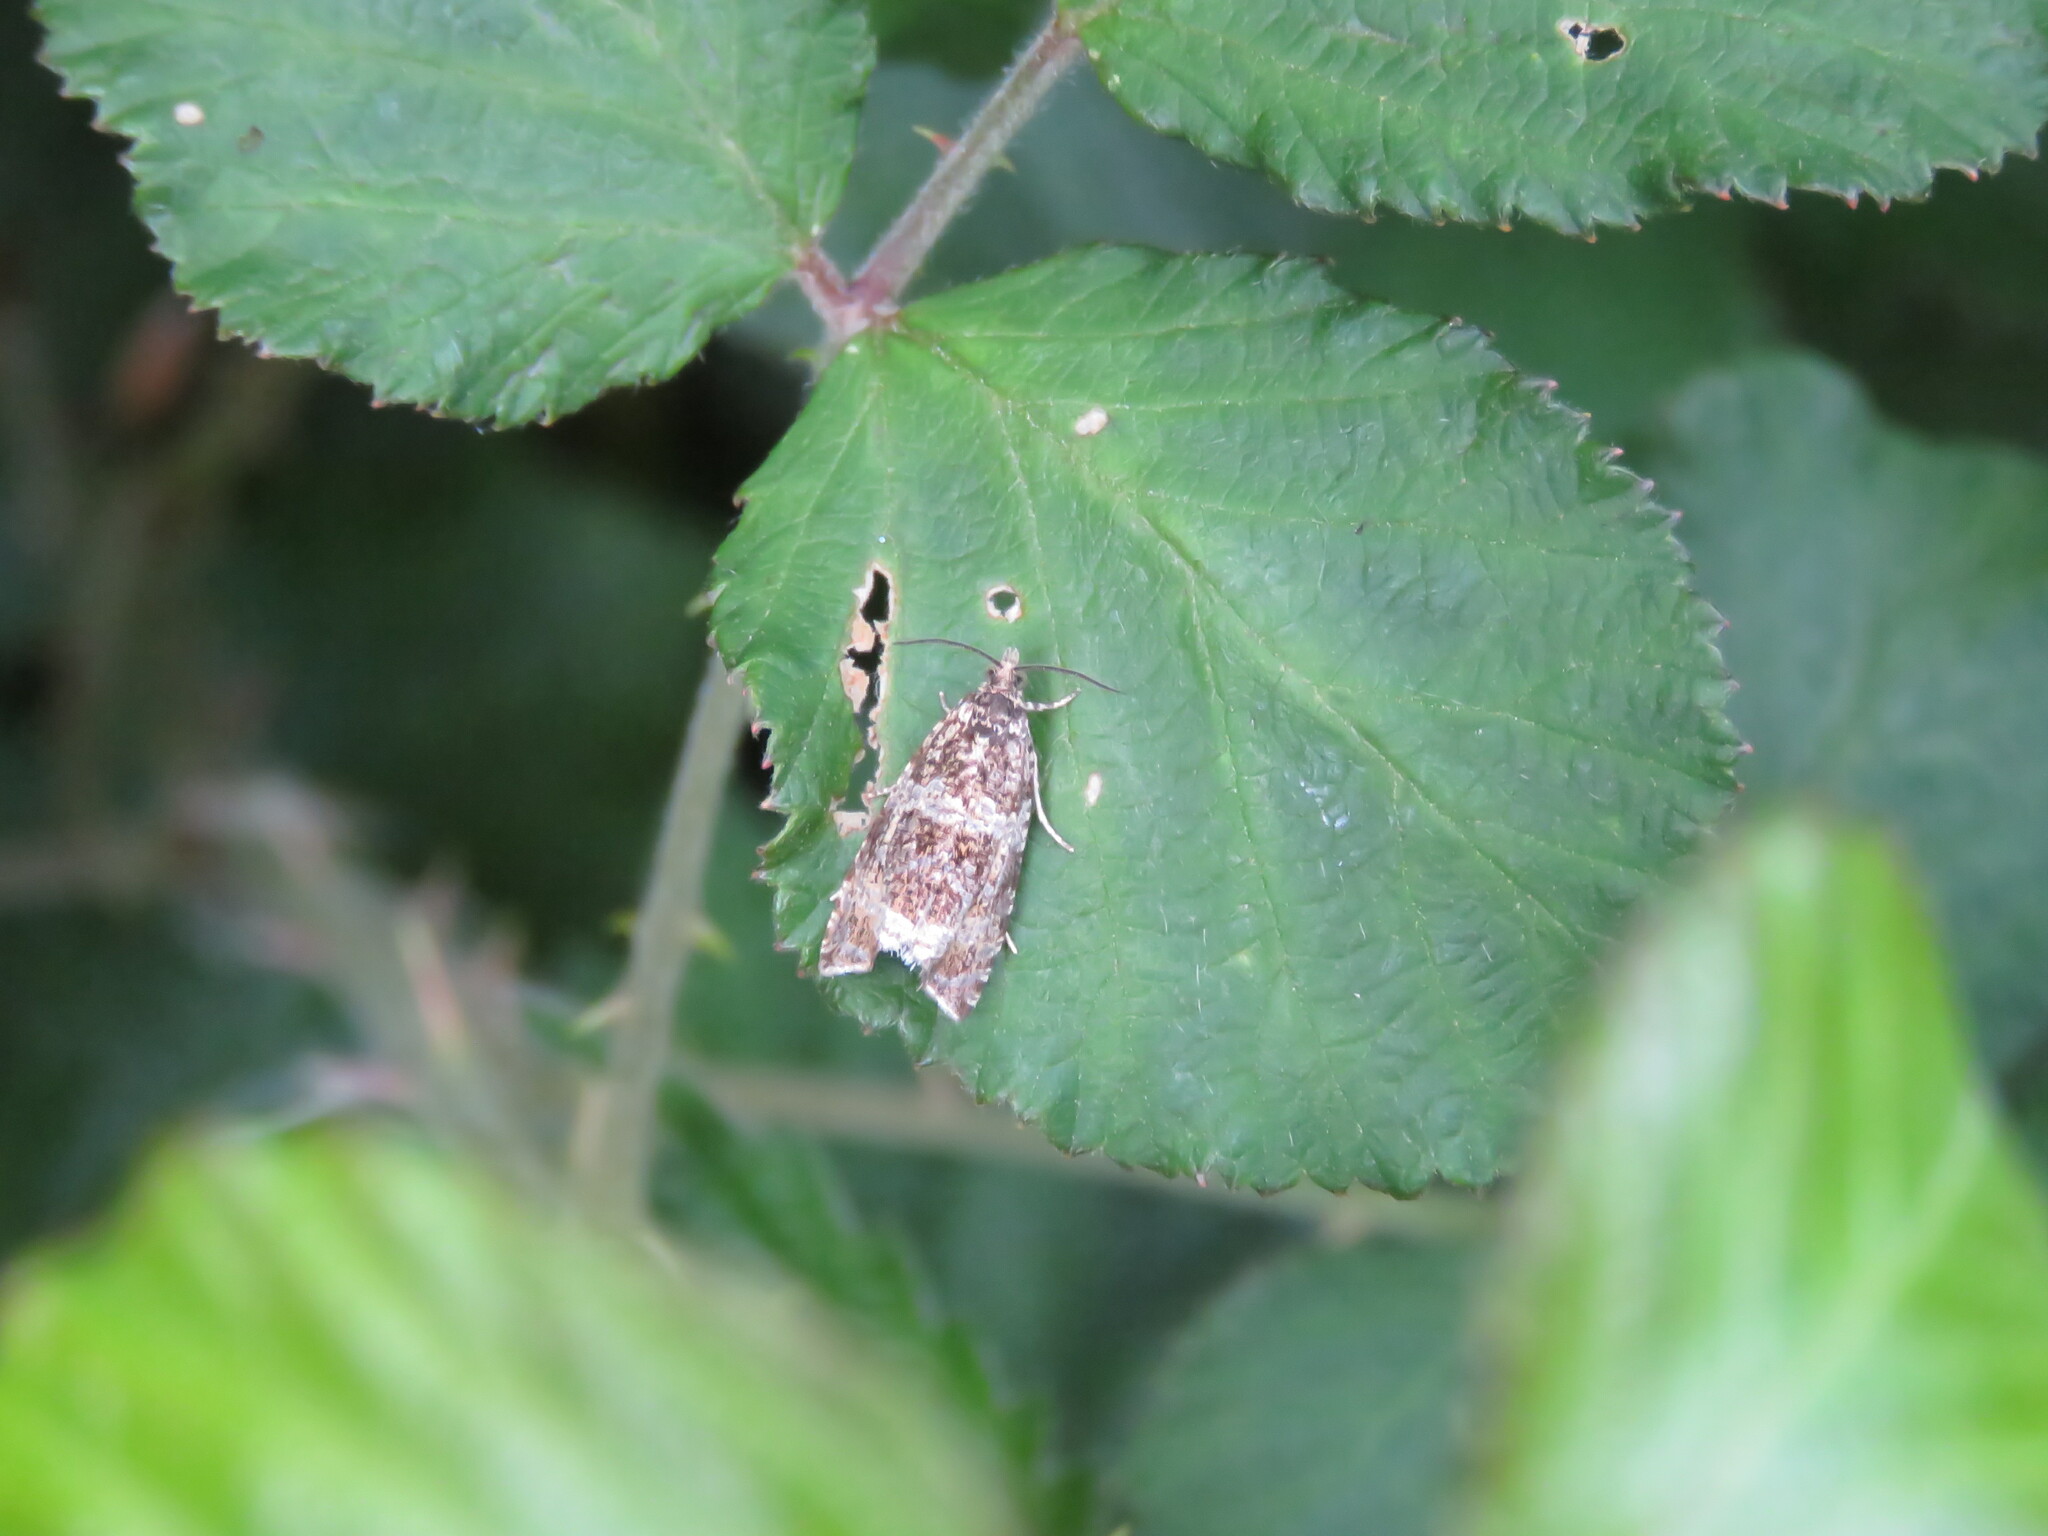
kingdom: Animalia
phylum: Arthropoda
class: Insecta
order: Lepidoptera
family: Tortricidae
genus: Syricoris
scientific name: Syricoris lacunana
